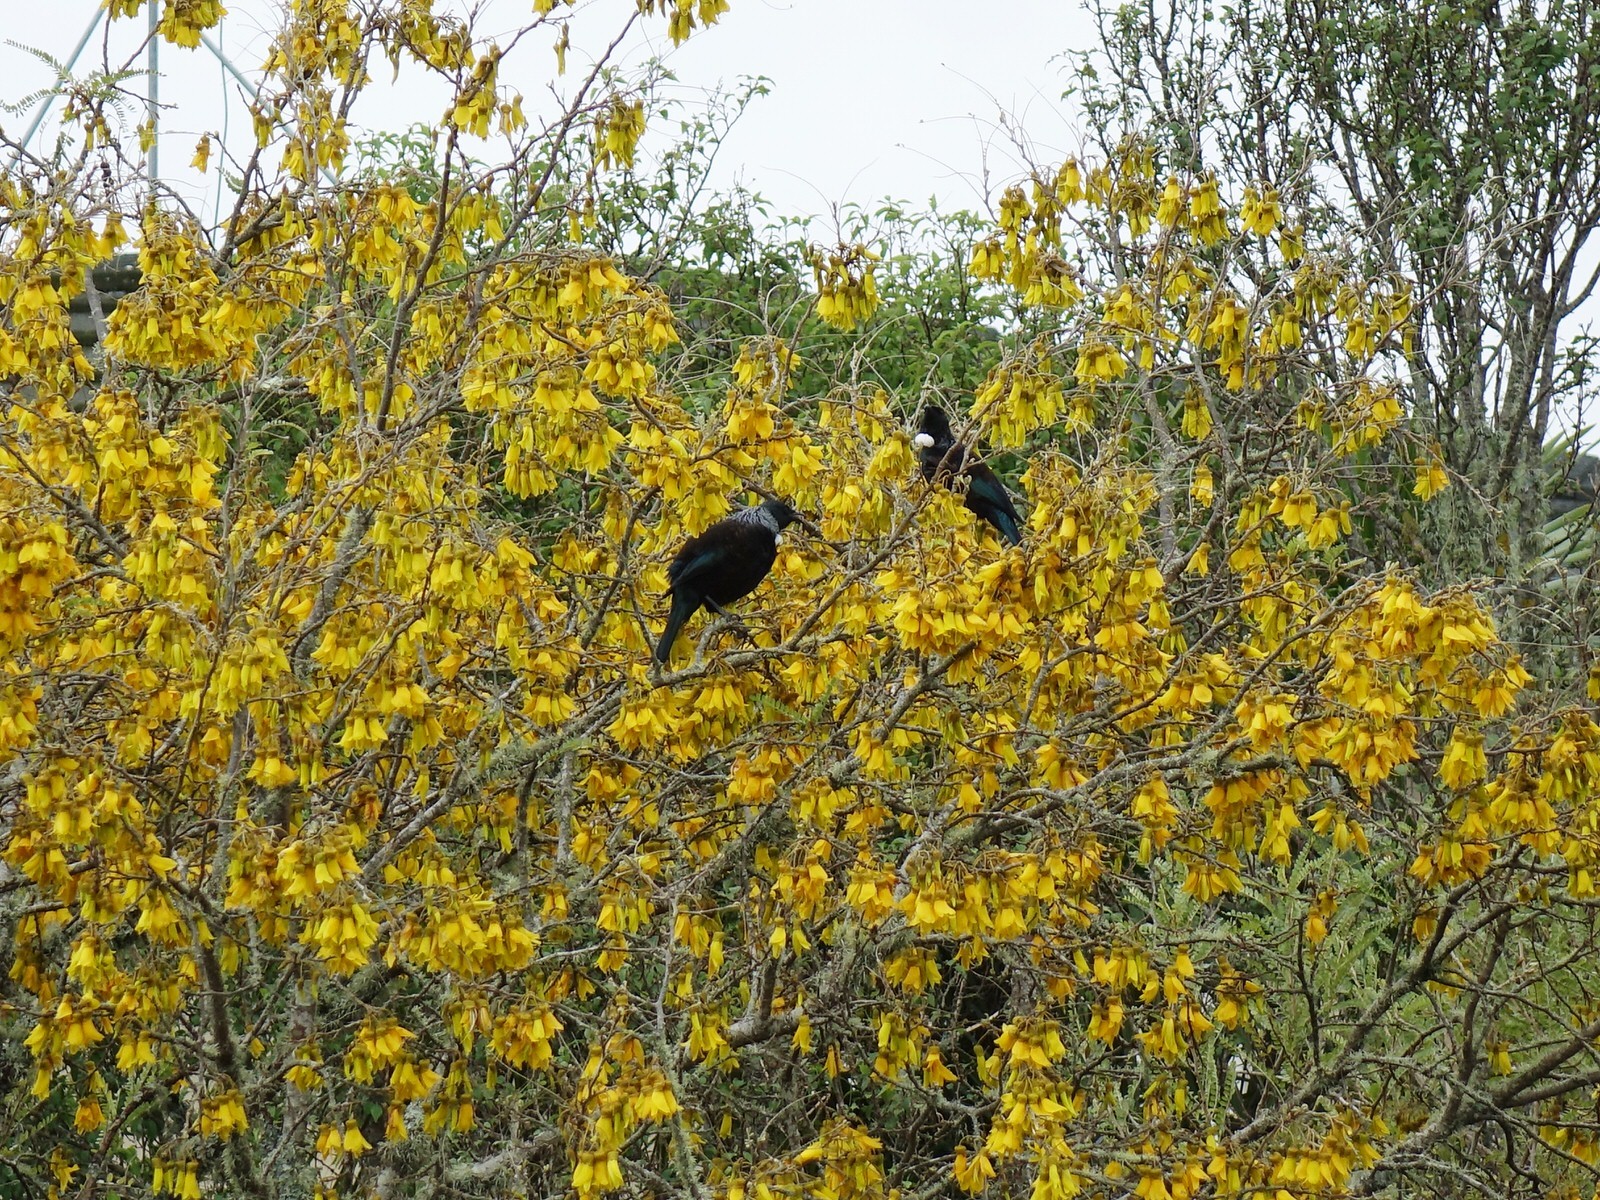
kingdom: Animalia
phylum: Chordata
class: Aves
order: Passeriformes
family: Meliphagidae
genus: Prosthemadera
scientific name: Prosthemadera novaeseelandiae
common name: Tui
